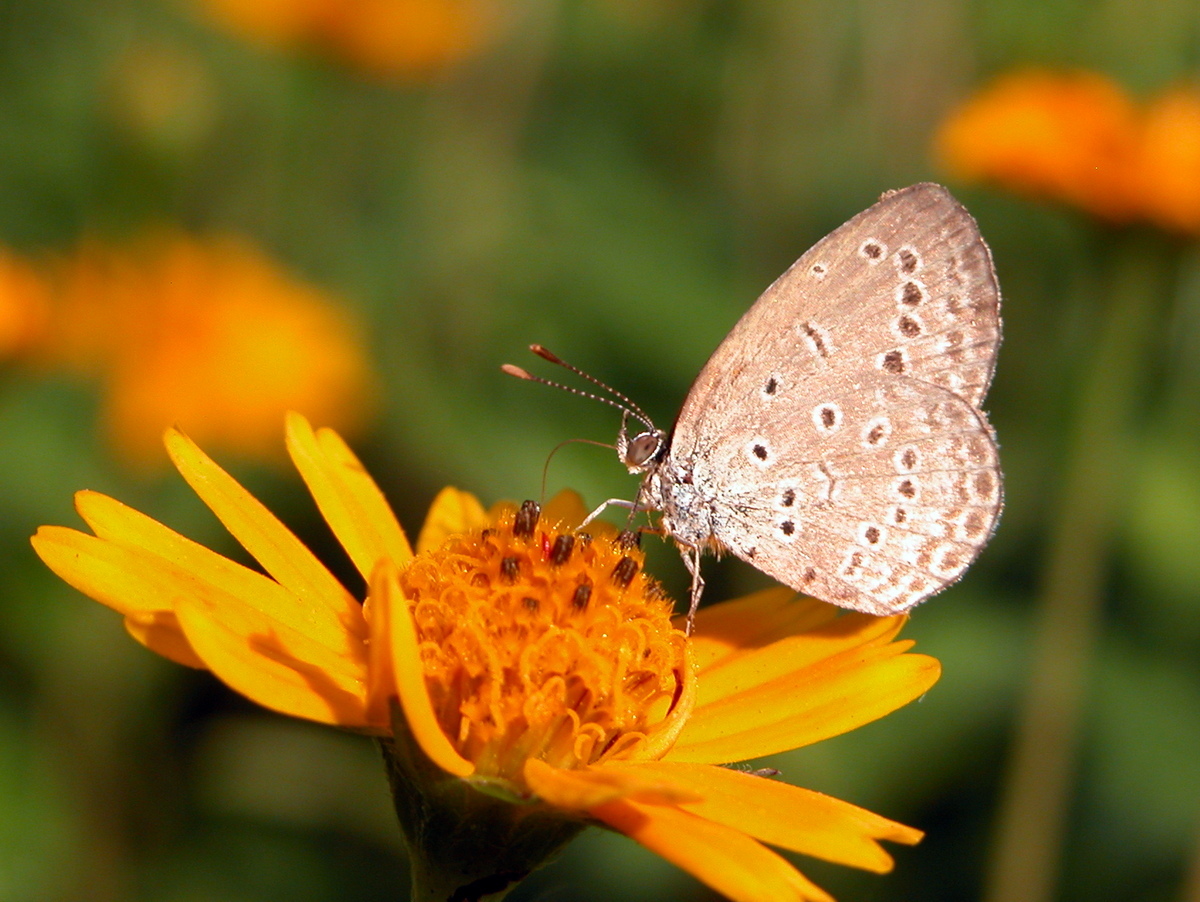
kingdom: Animalia
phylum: Arthropoda
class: Insecta
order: Lepidoptera
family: Lycaenidae
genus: Pseudozizeeria
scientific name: Pseudozizeeria maha
